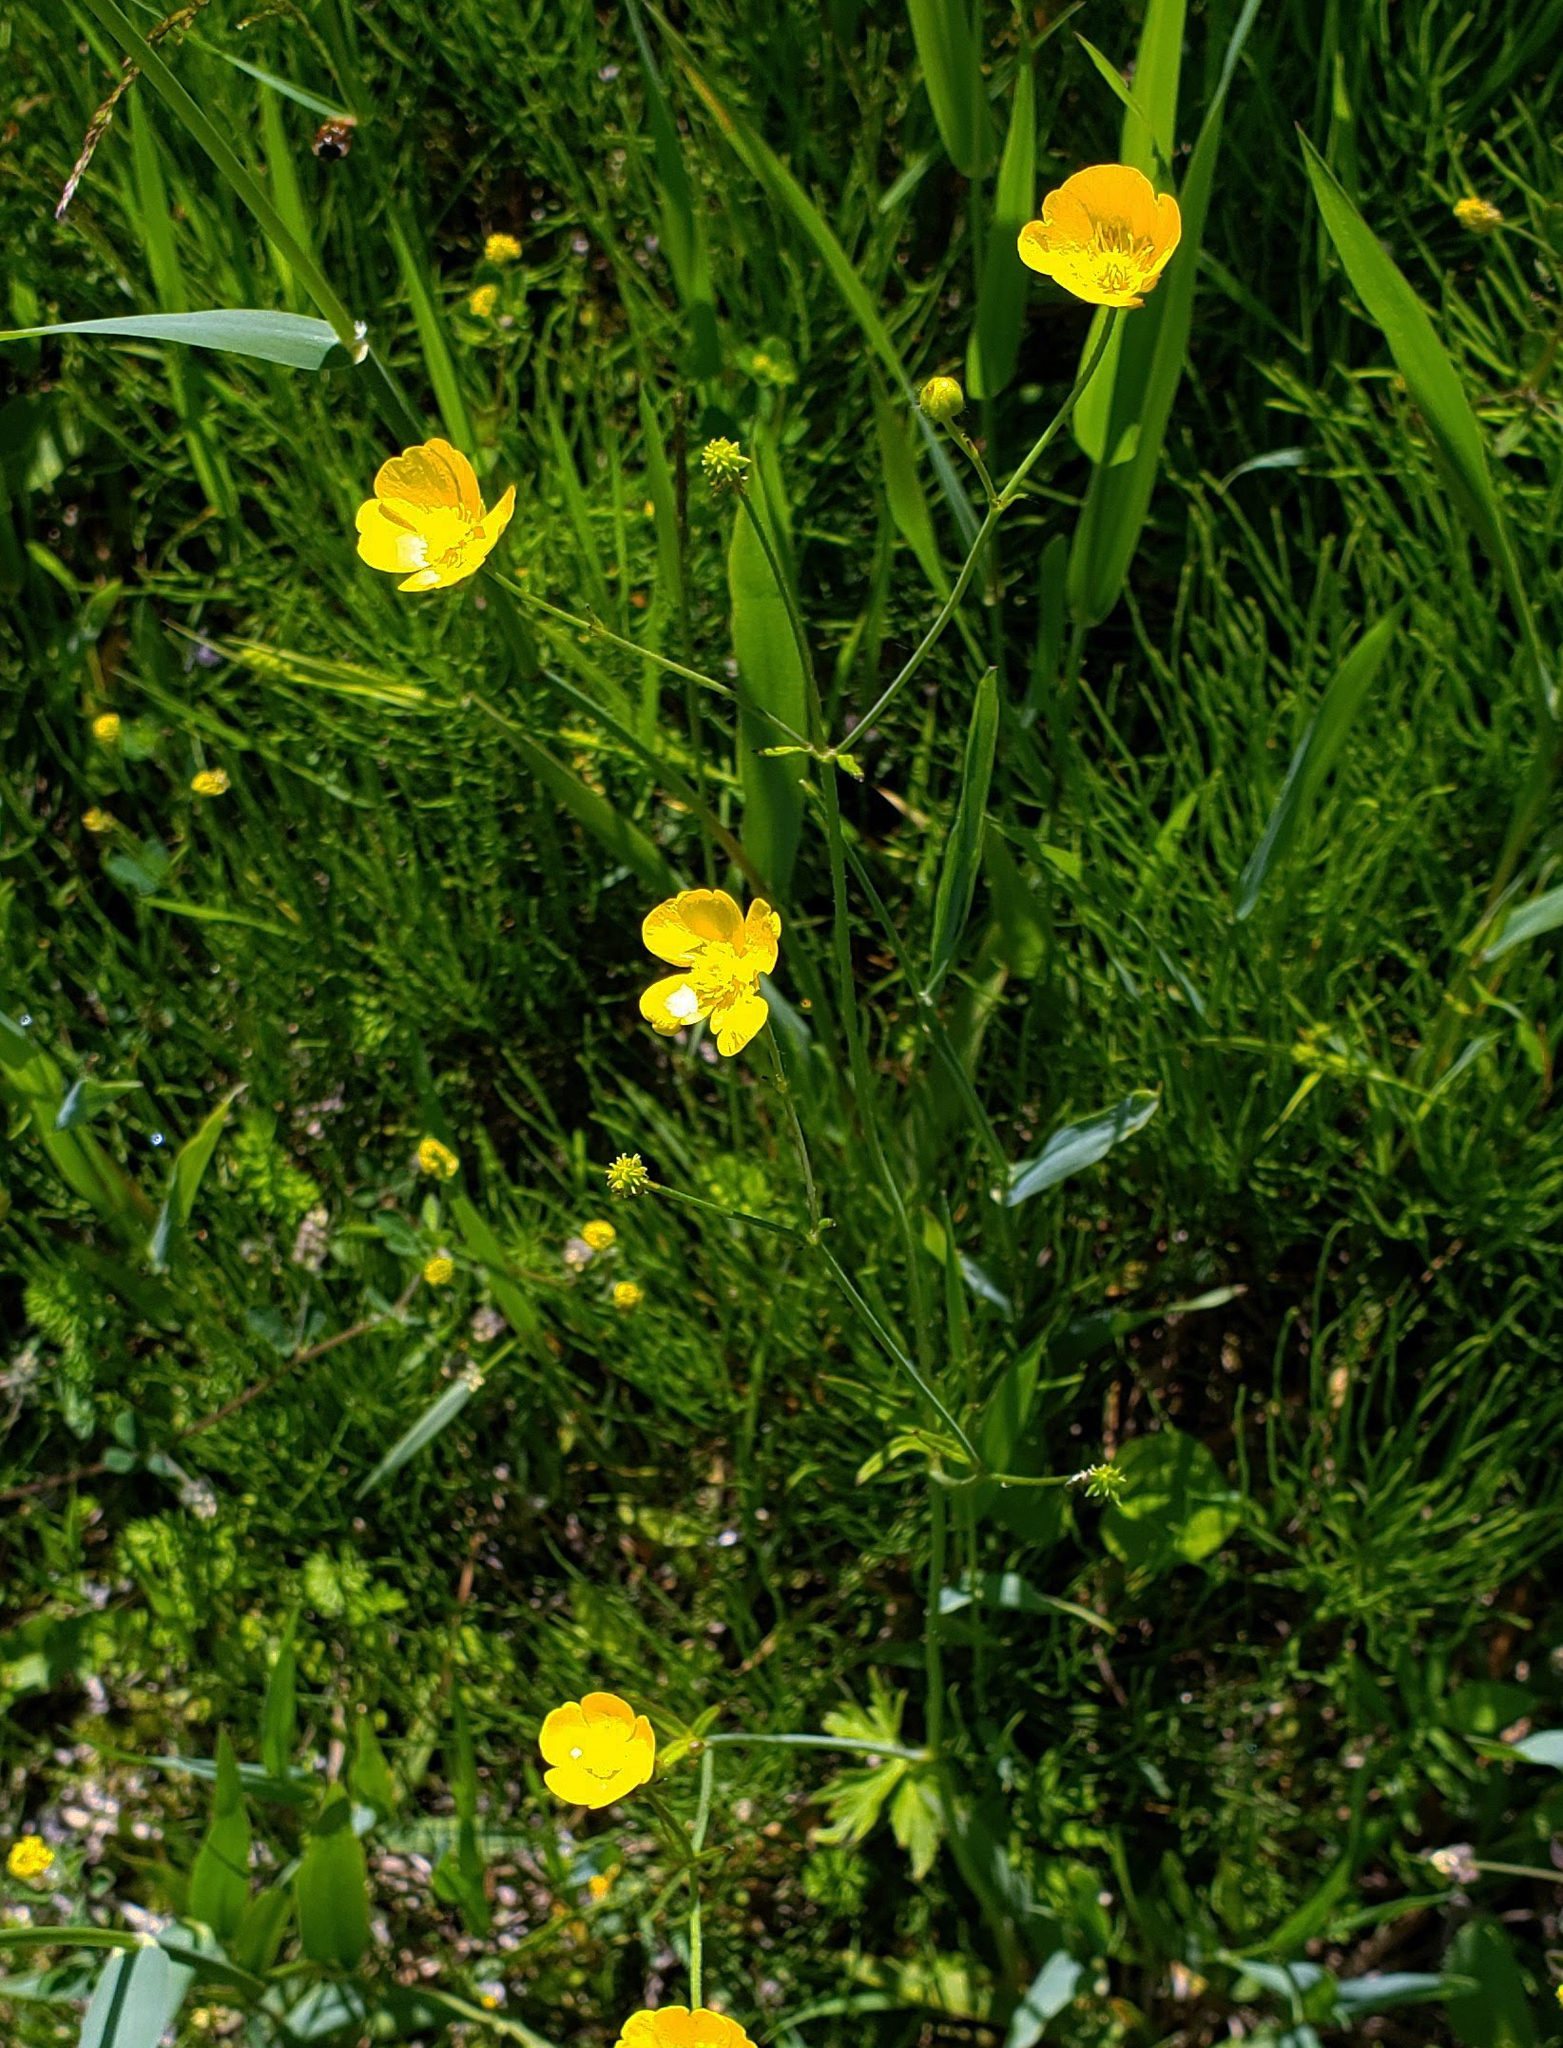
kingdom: Plantae
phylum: Tracheophyta
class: Magnoliopsida
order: Ranunculales
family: Ranunculaceae
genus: Ranunculus
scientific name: Ranunculus acris
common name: Meadow buttercup
